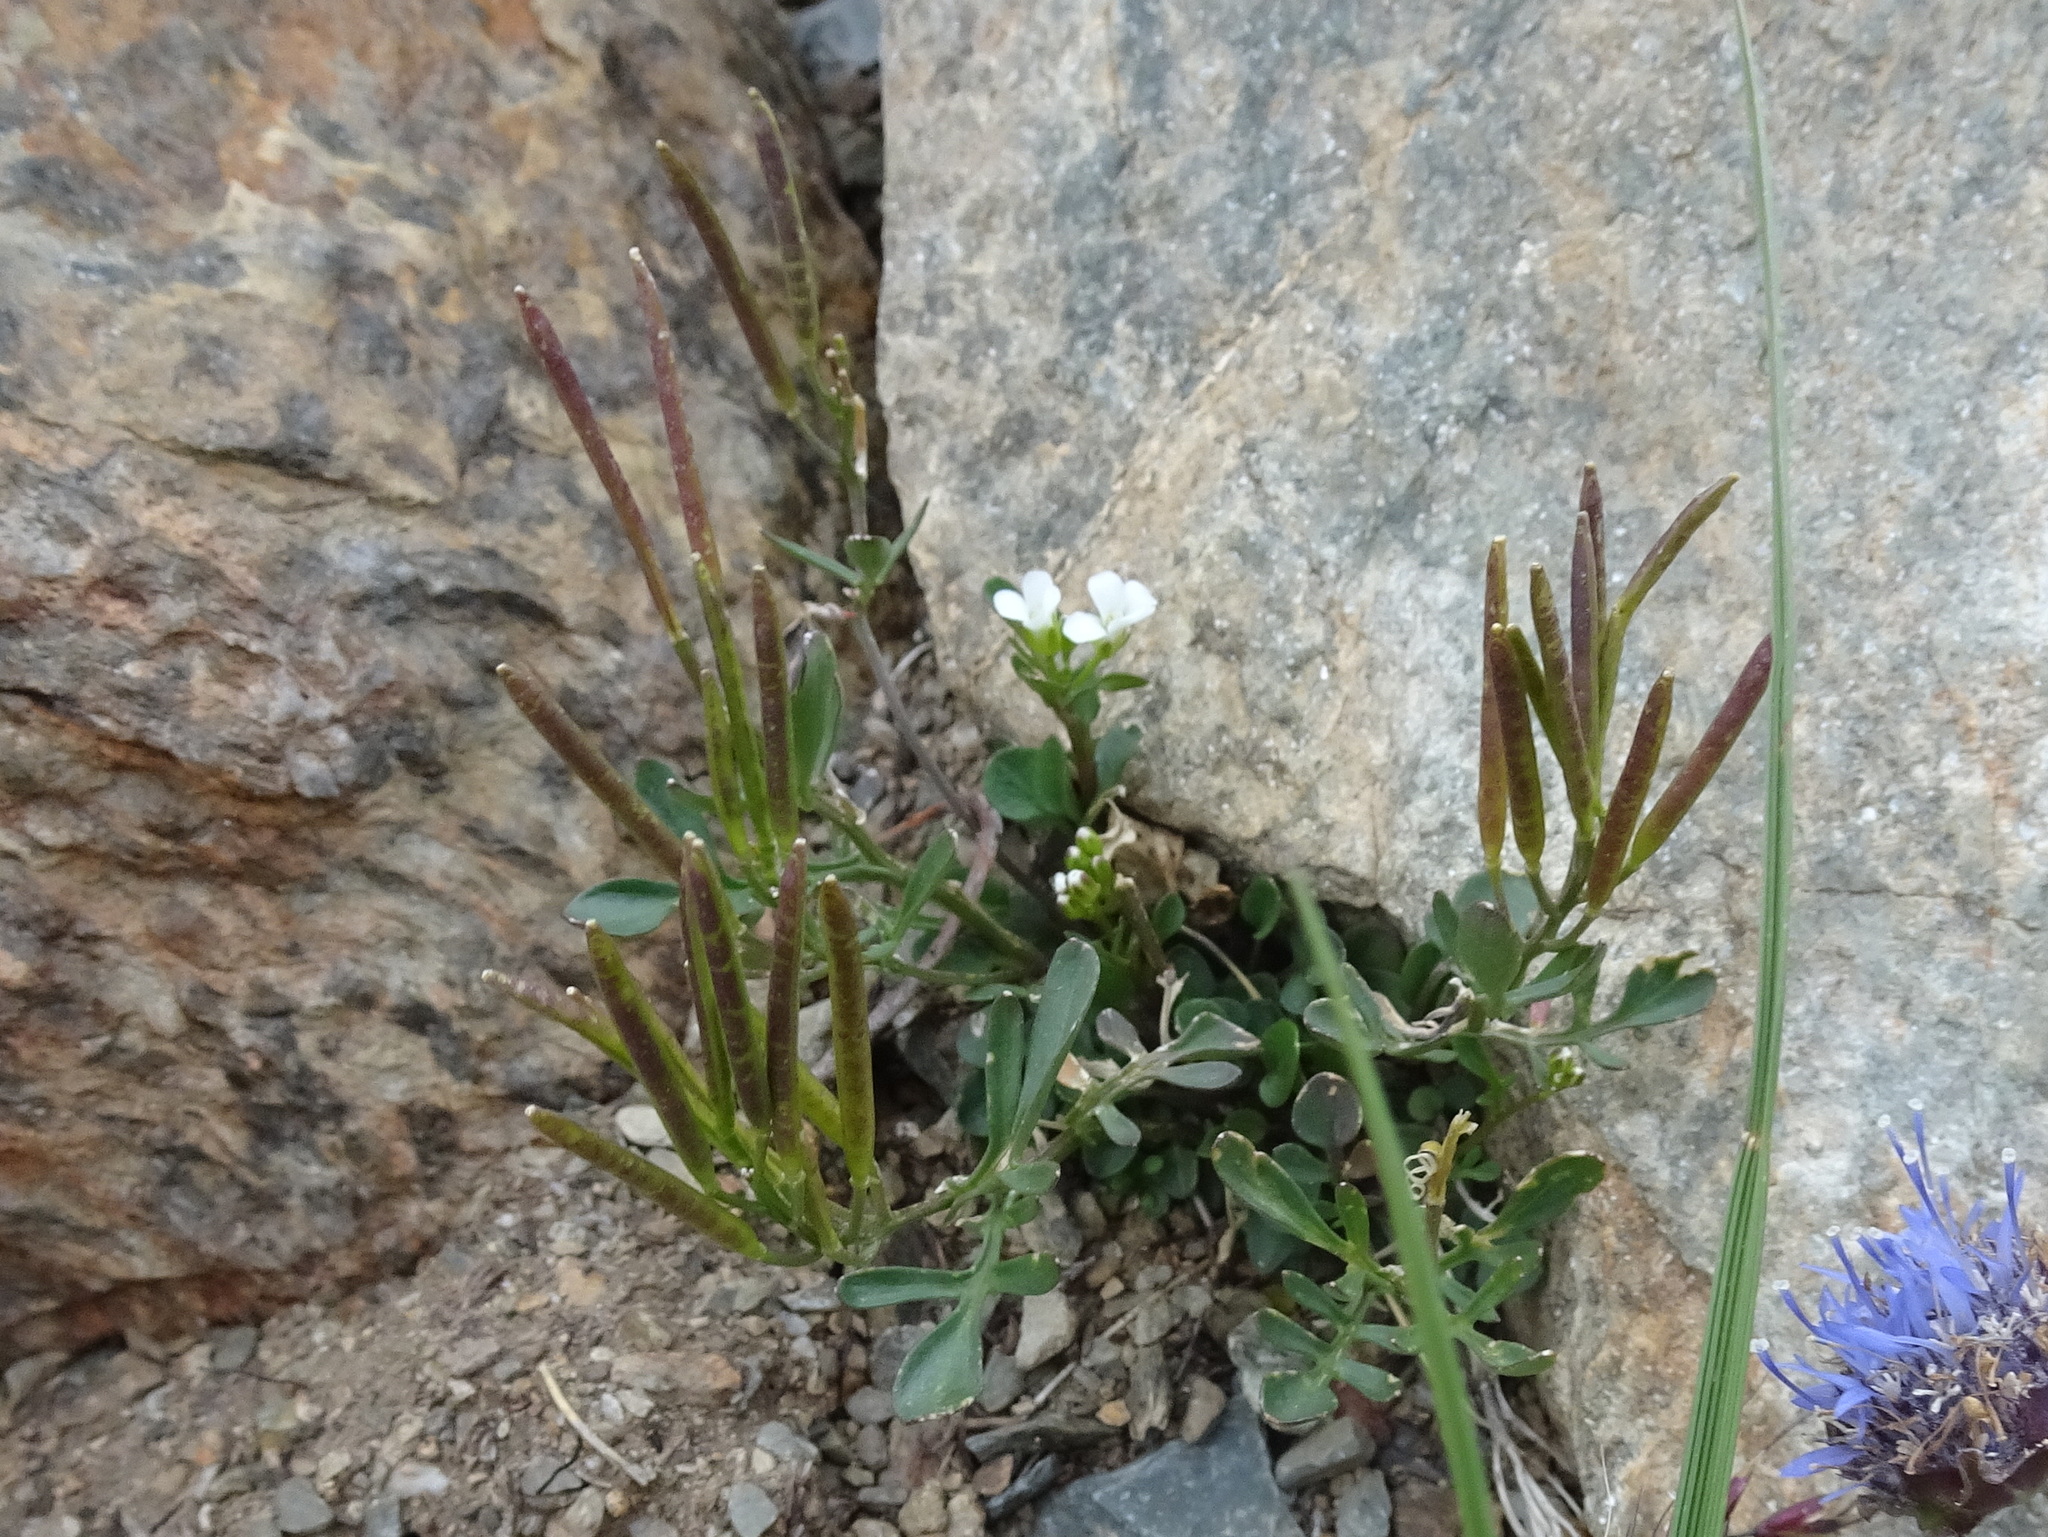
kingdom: Plantae
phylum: Tracheophyta
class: Magnoliopsida
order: Brassicales
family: Brassicaceae
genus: Cardamine
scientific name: Cardamine resedifolia
